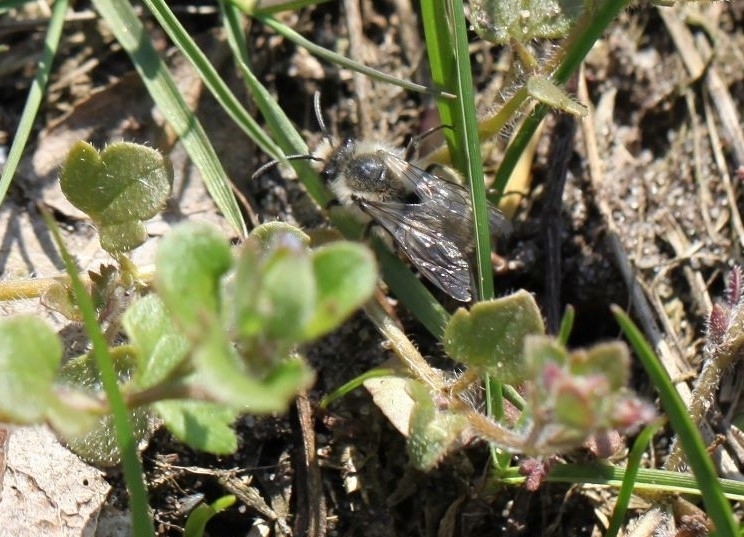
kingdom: Animalia
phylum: Arthropoda
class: Insecta
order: Hymenoptera
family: Andrenidae
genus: Andrena
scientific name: Andrena vaga
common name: Grey-backed mining bee
